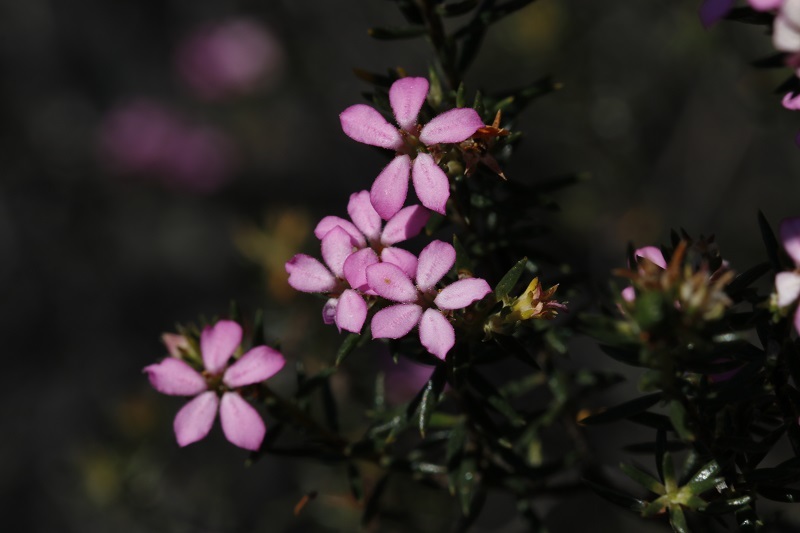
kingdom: Plantae
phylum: Tracheophyta
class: Magnoliopsida
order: Sapindales
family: Rutaceae
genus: Acmadenia
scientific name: Acmadenia alternifolia
